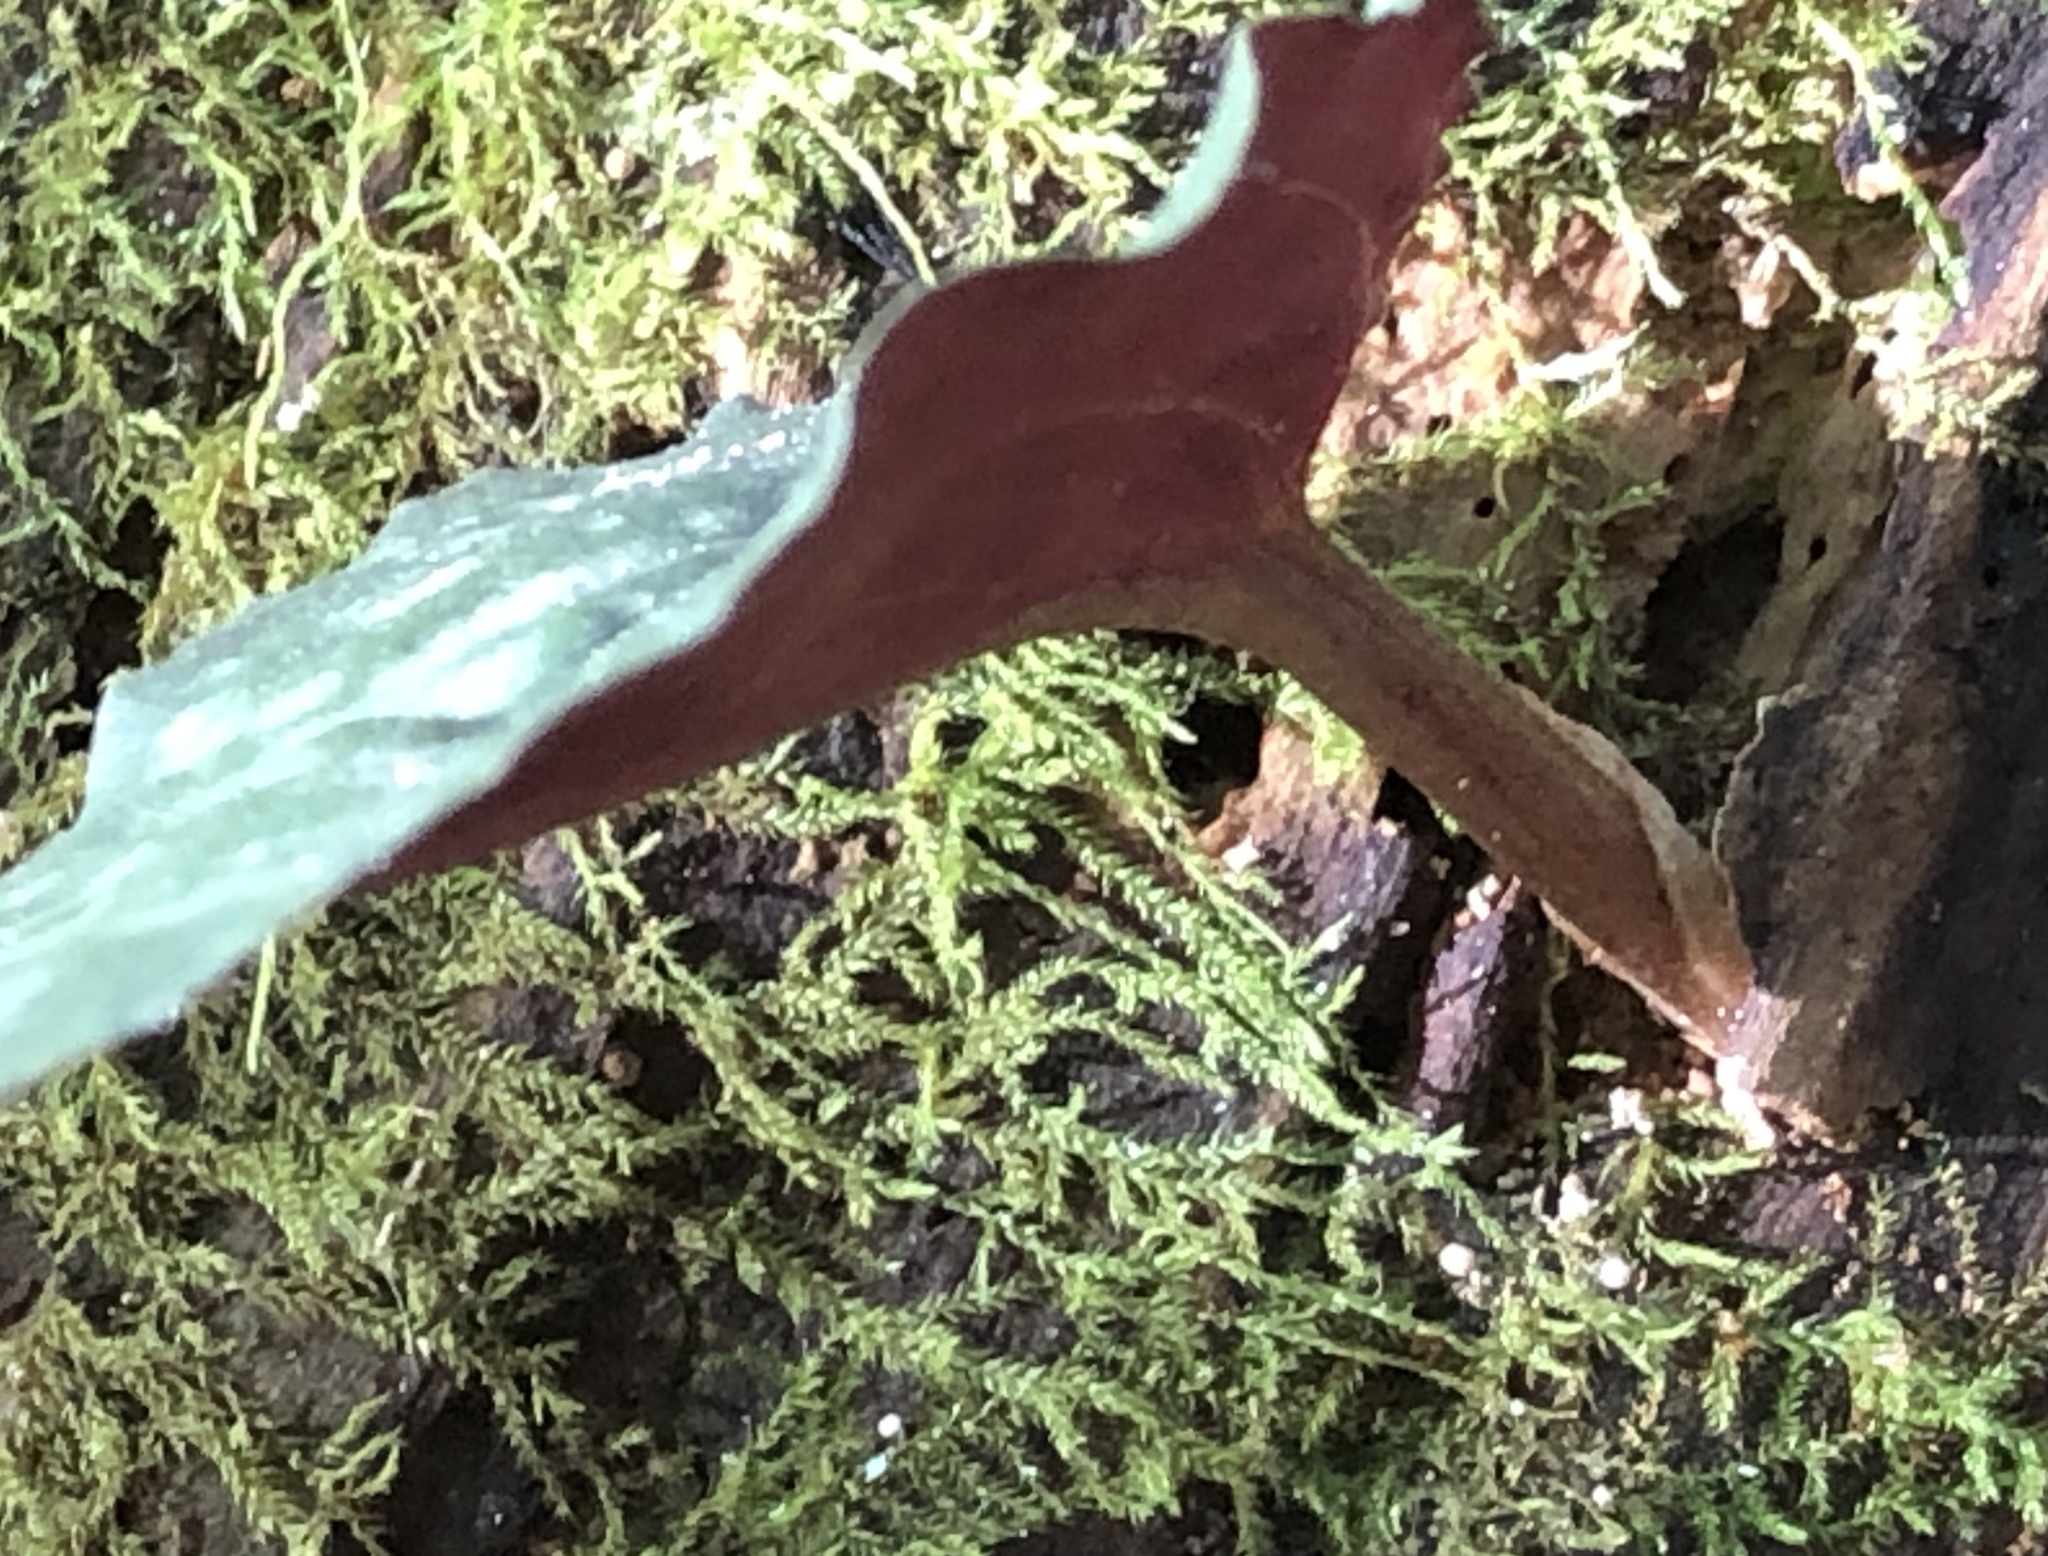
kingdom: Plantae
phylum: Tracheophyta
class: Liliopsida
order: Asparagales
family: Orchidaceae
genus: Tipularia
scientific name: Tipularia discolor
